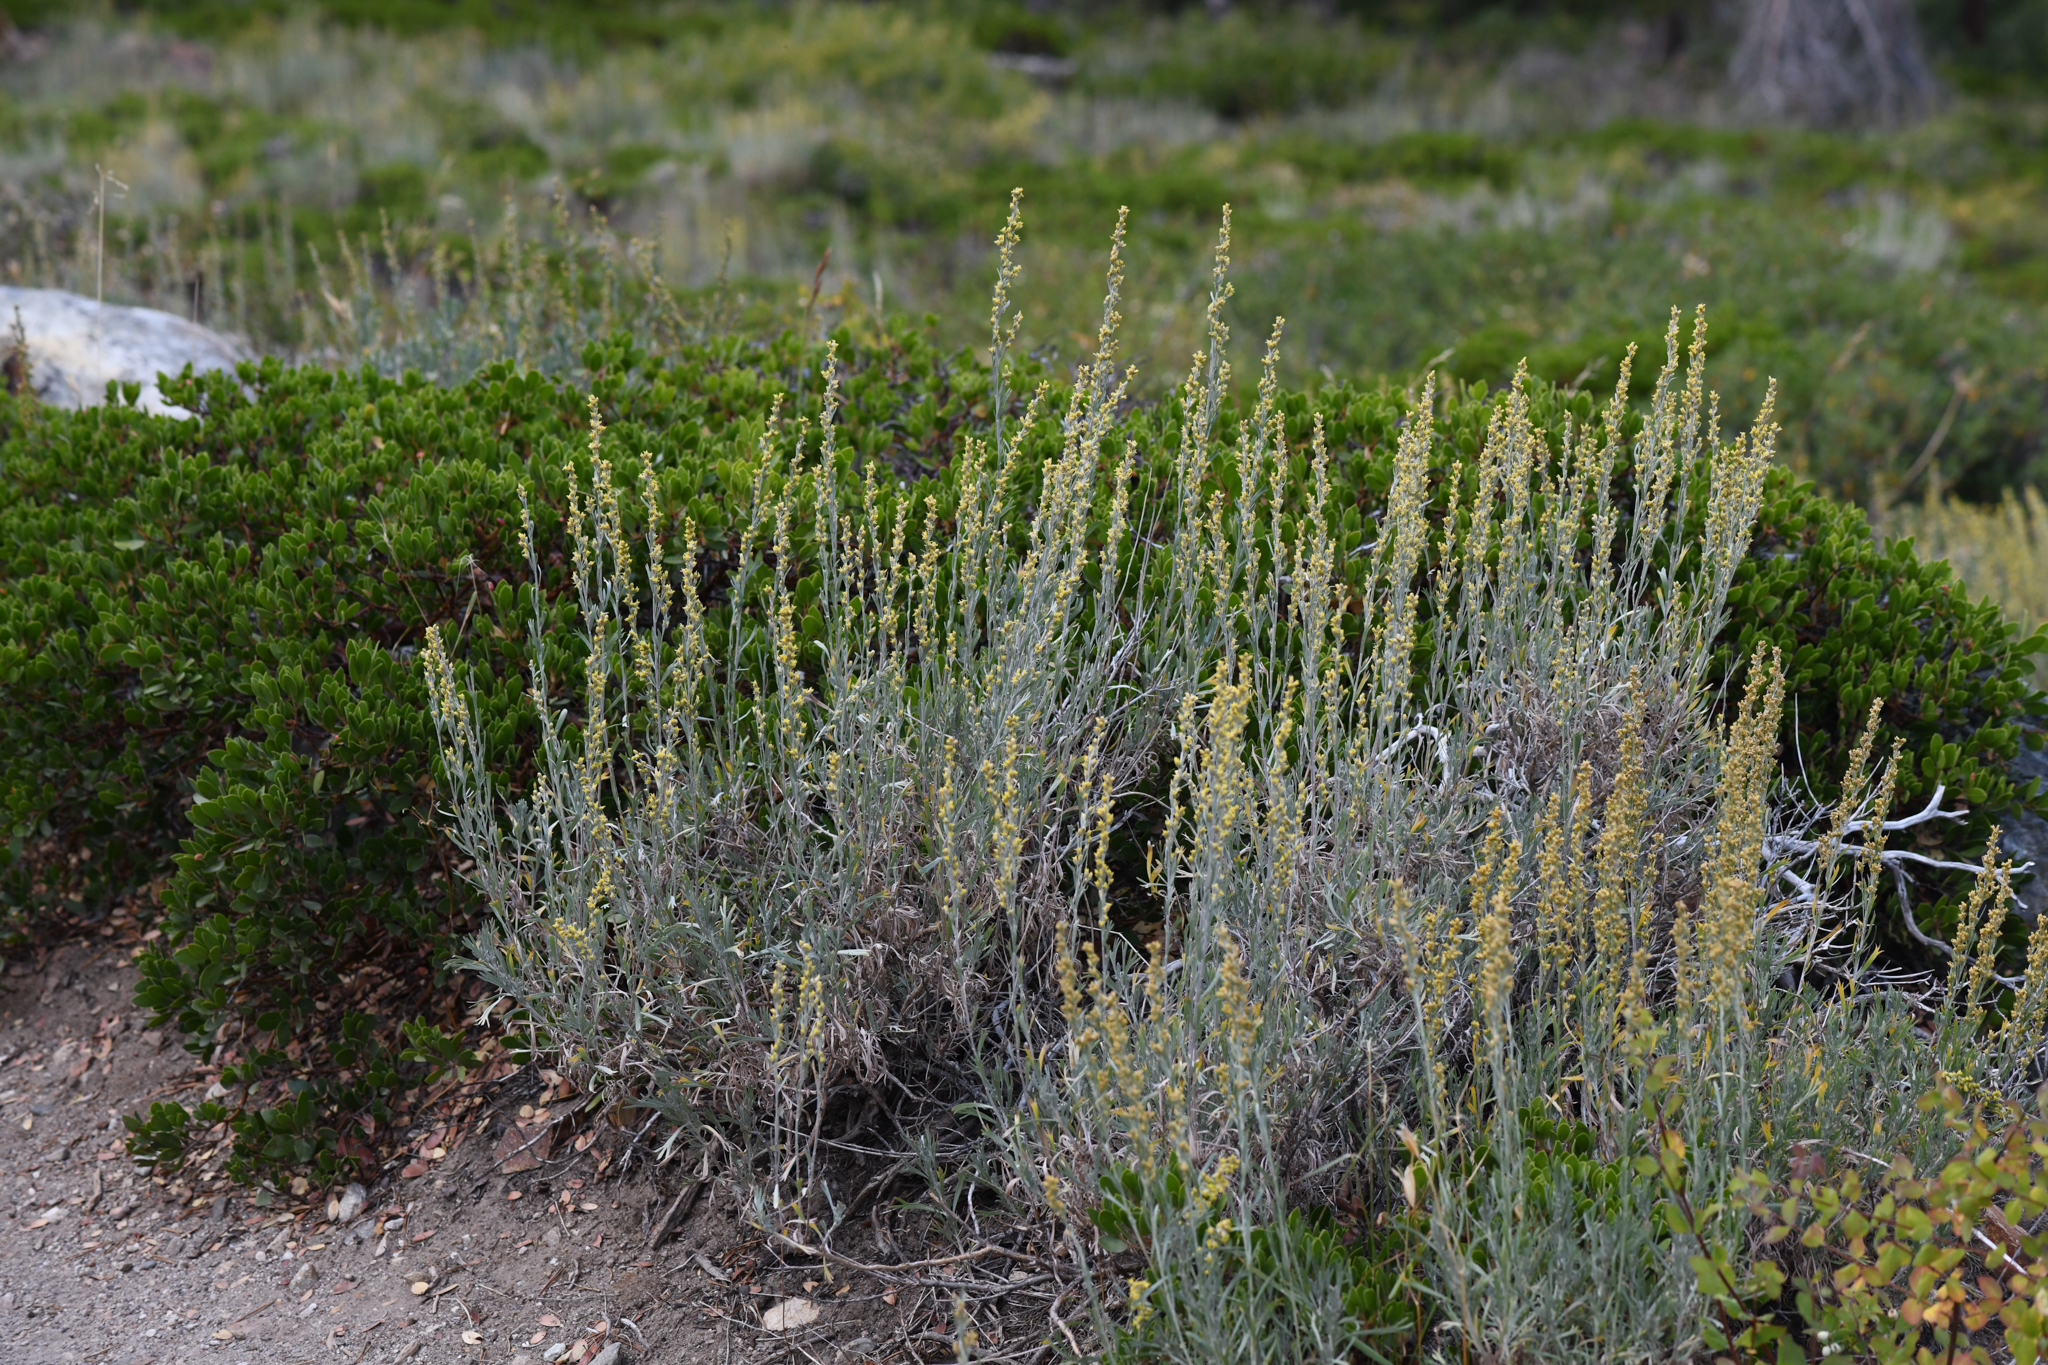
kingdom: Plantae
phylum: Tracheophyta
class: Magnoliopsida
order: Asterales
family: Asteraceae
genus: Artemisia
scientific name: Artemisia spiciformis
